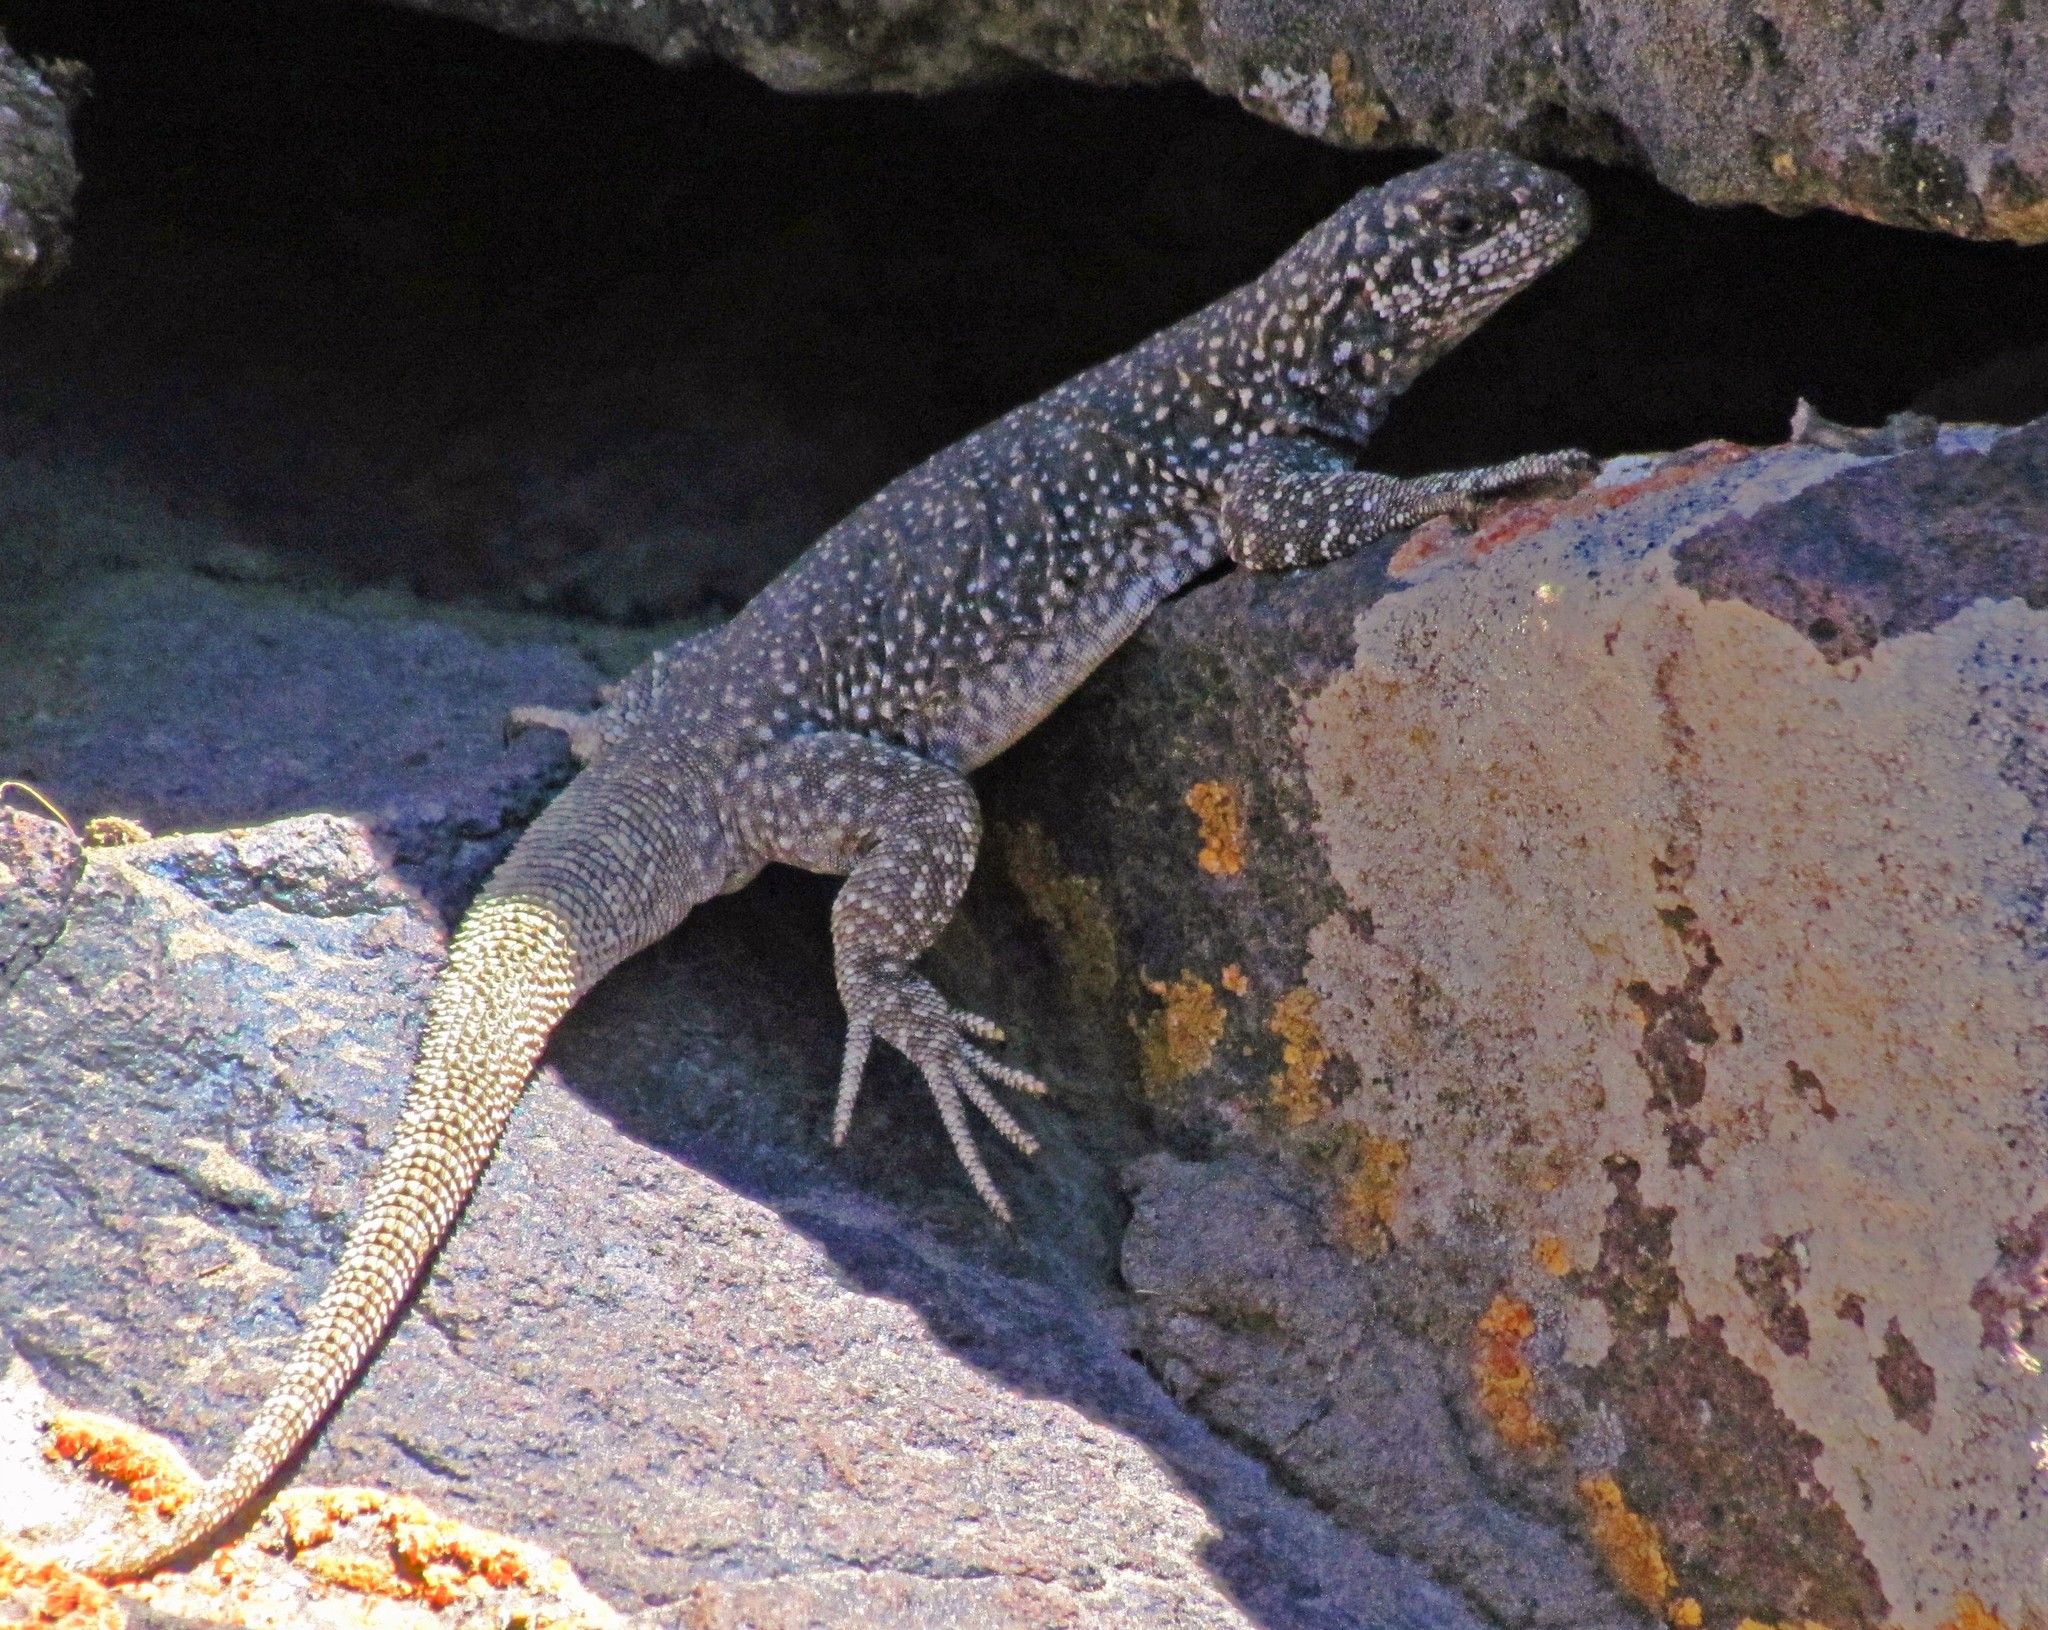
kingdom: Animalia
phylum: Chordata
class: Squamata
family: Liolaemidae
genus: Phymaturus
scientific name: Phymaturus somuncurensis
